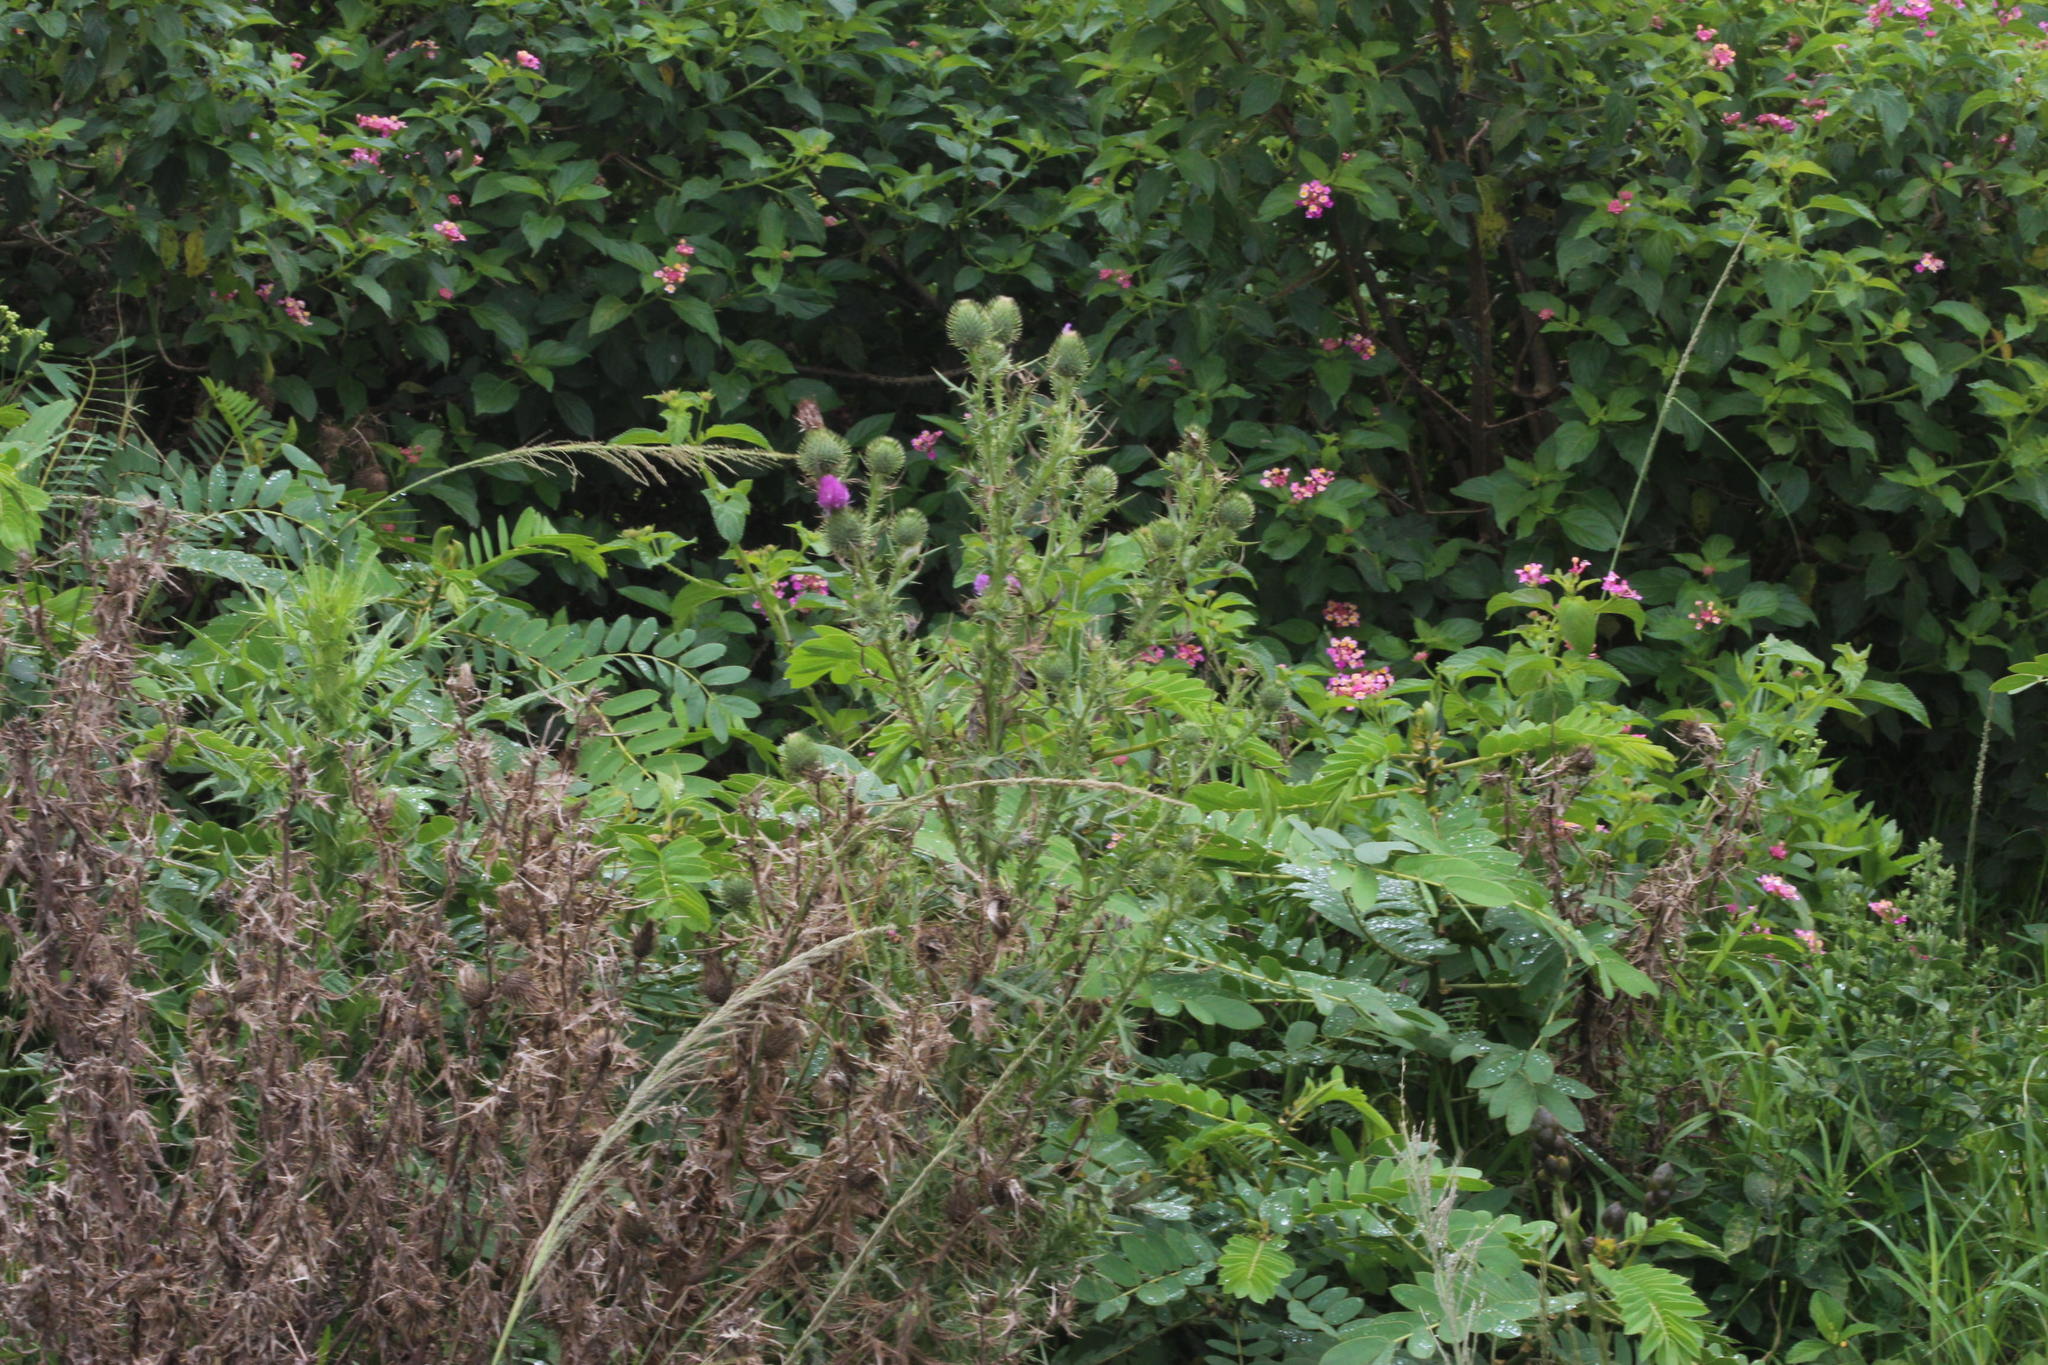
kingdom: Plantae
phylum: Tracheophyta
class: Magnoliopsida
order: Asterales
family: Asteraceae
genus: Cirsium
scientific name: Cirsium vulgare
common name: Bull thistle
